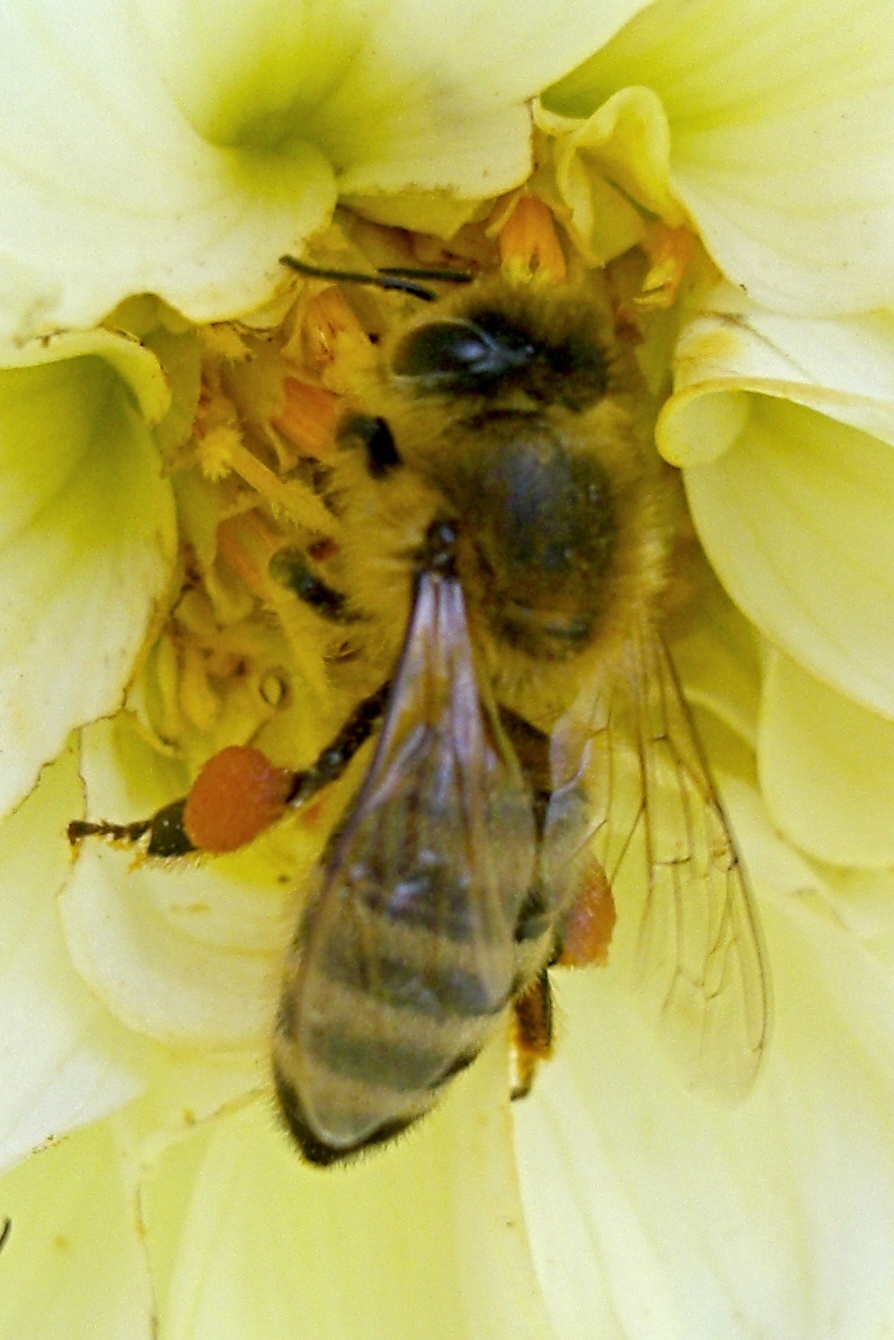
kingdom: Animalia
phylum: Arthropoda
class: Insecta
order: Hymenoptera
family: Apidae
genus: Apis
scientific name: Apis mellifera
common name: Honey bee
